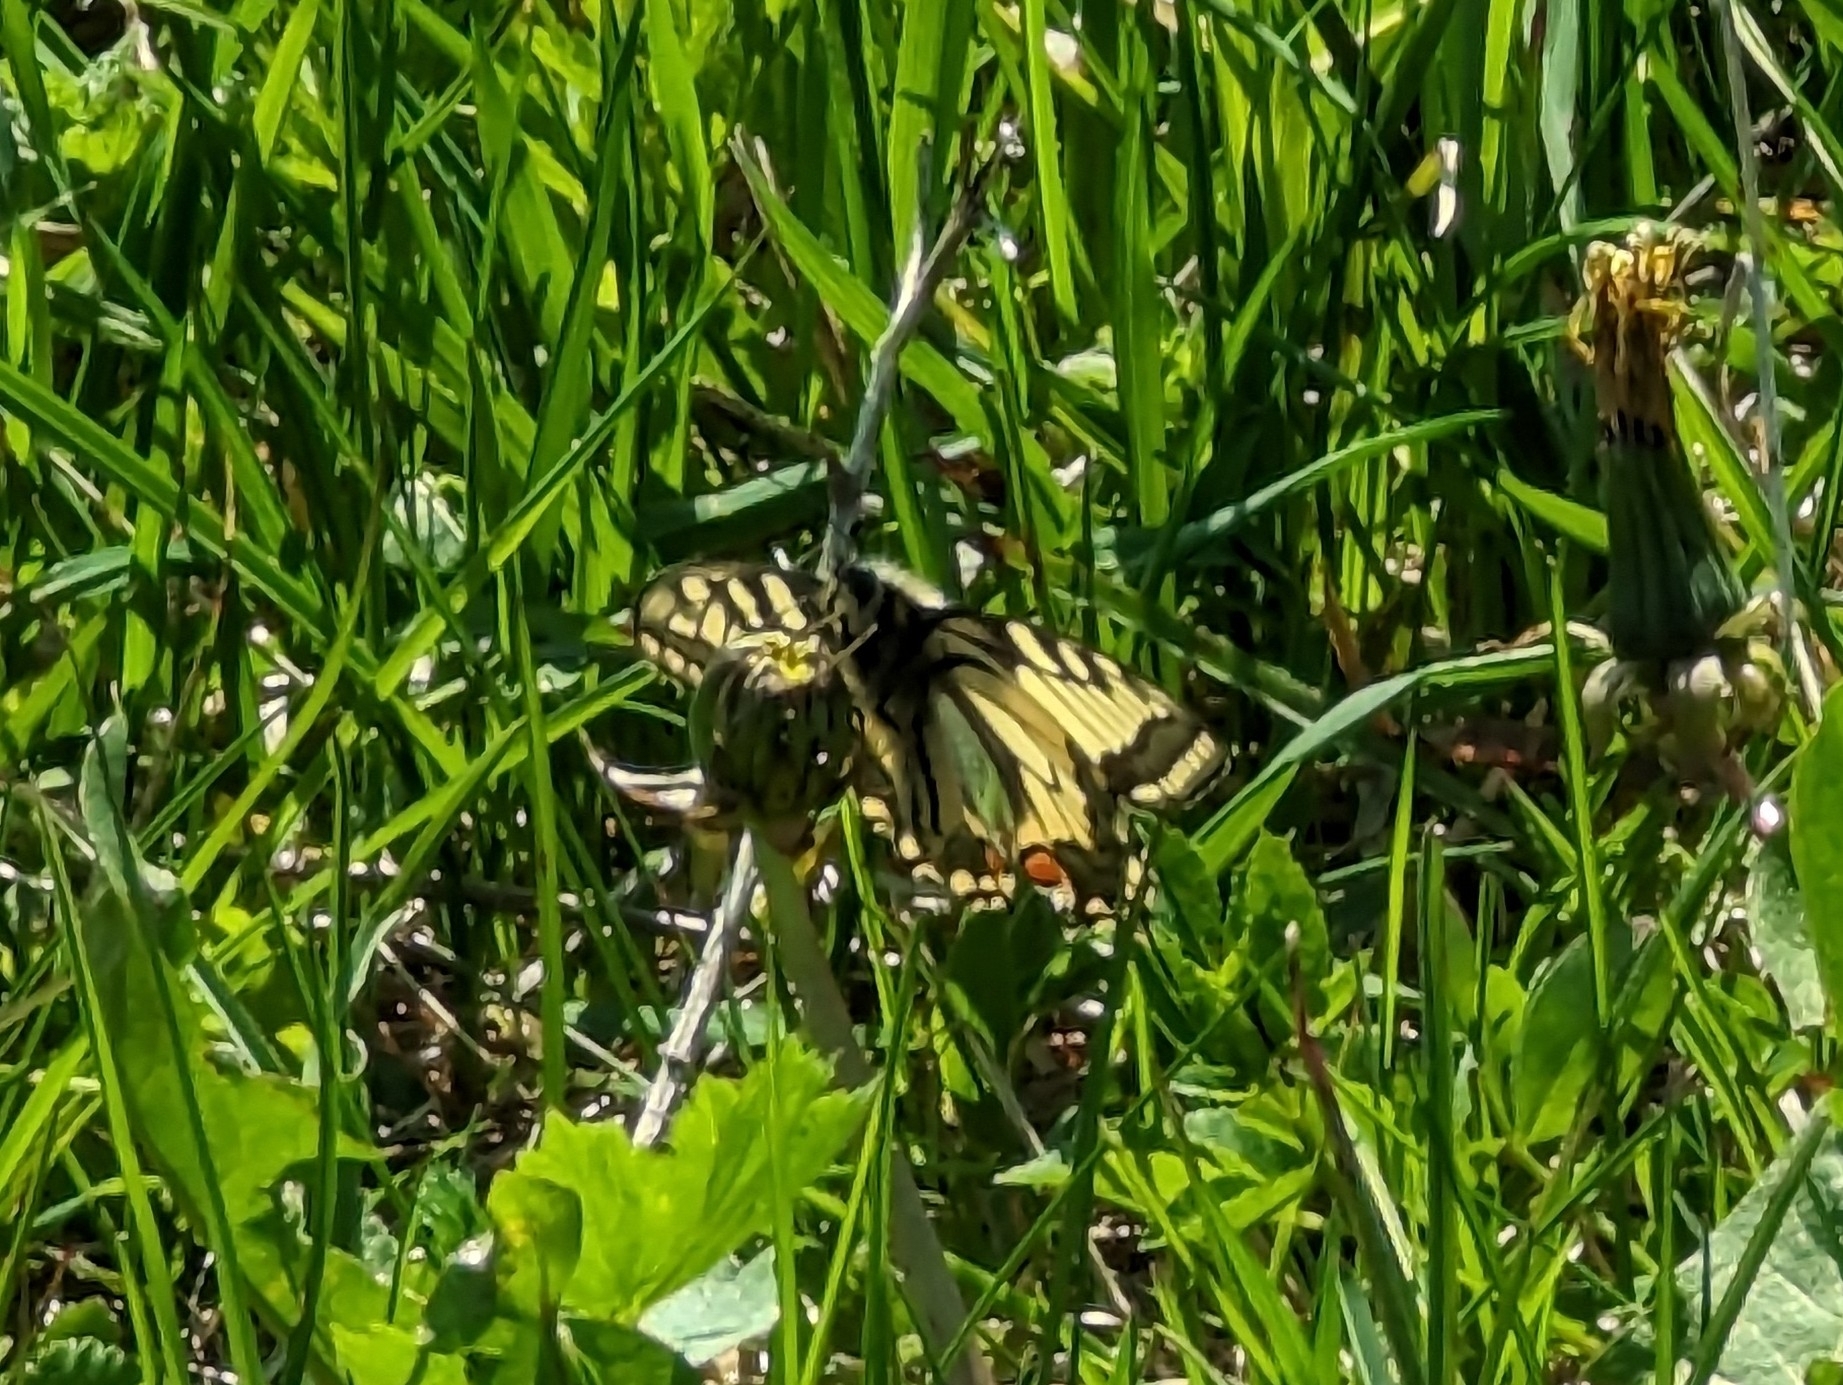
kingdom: Animalia
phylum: Arthropoda
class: Insecta
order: Lepidoptera
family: Papilionidae
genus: Papilio
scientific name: Papilio machaon
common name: Swallowtail
